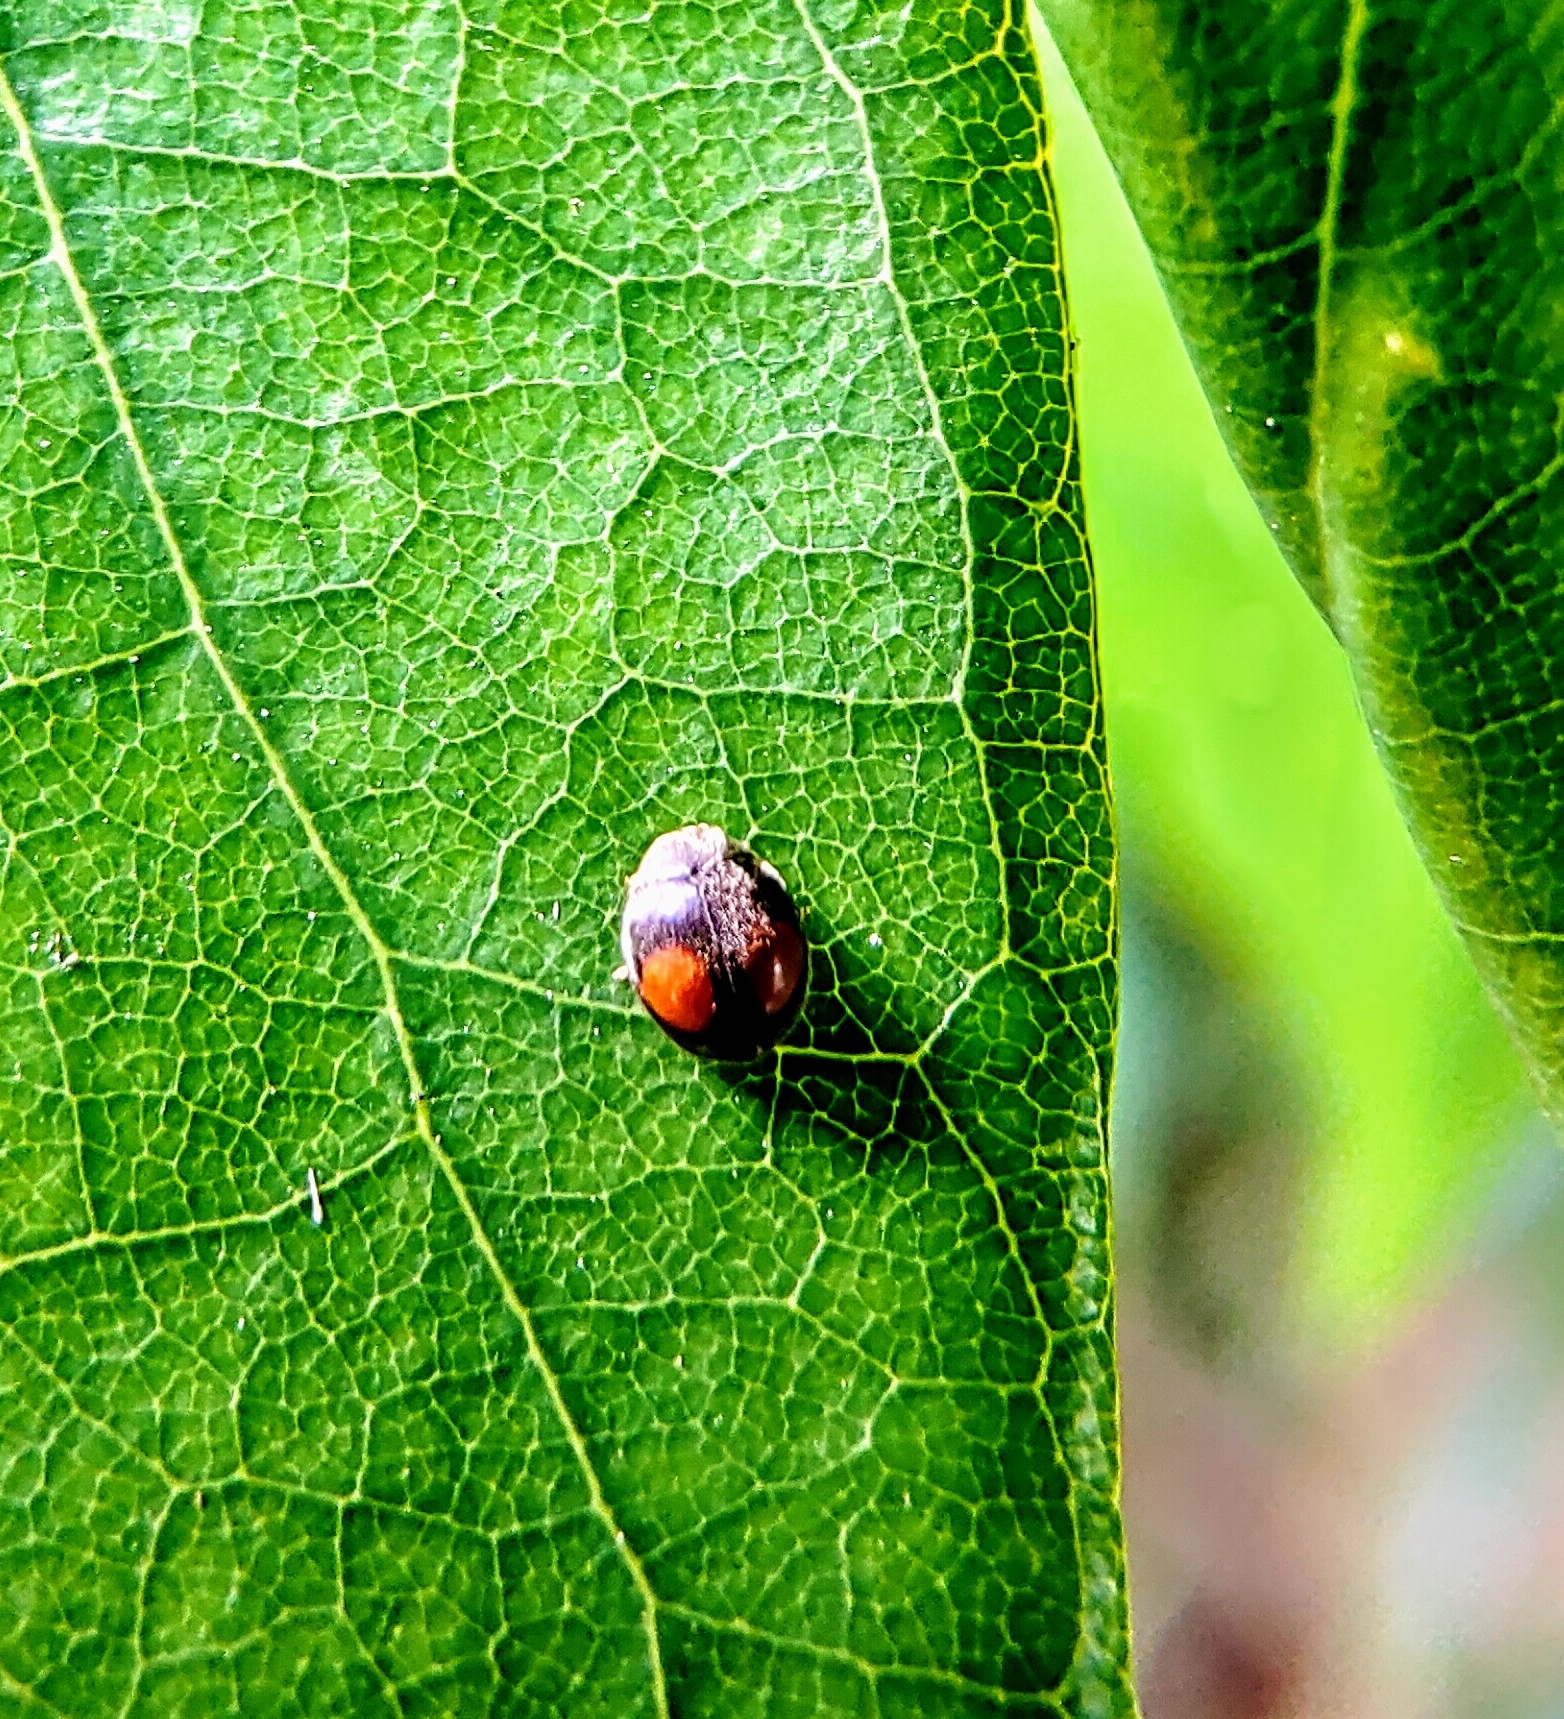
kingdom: Animalia
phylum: Arthropoda
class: Insecta
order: Coleoptera
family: Coccinellidae
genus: Cryptolaemus
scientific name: Cryptolaemus montrouzieri
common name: Mealybug destroyer
